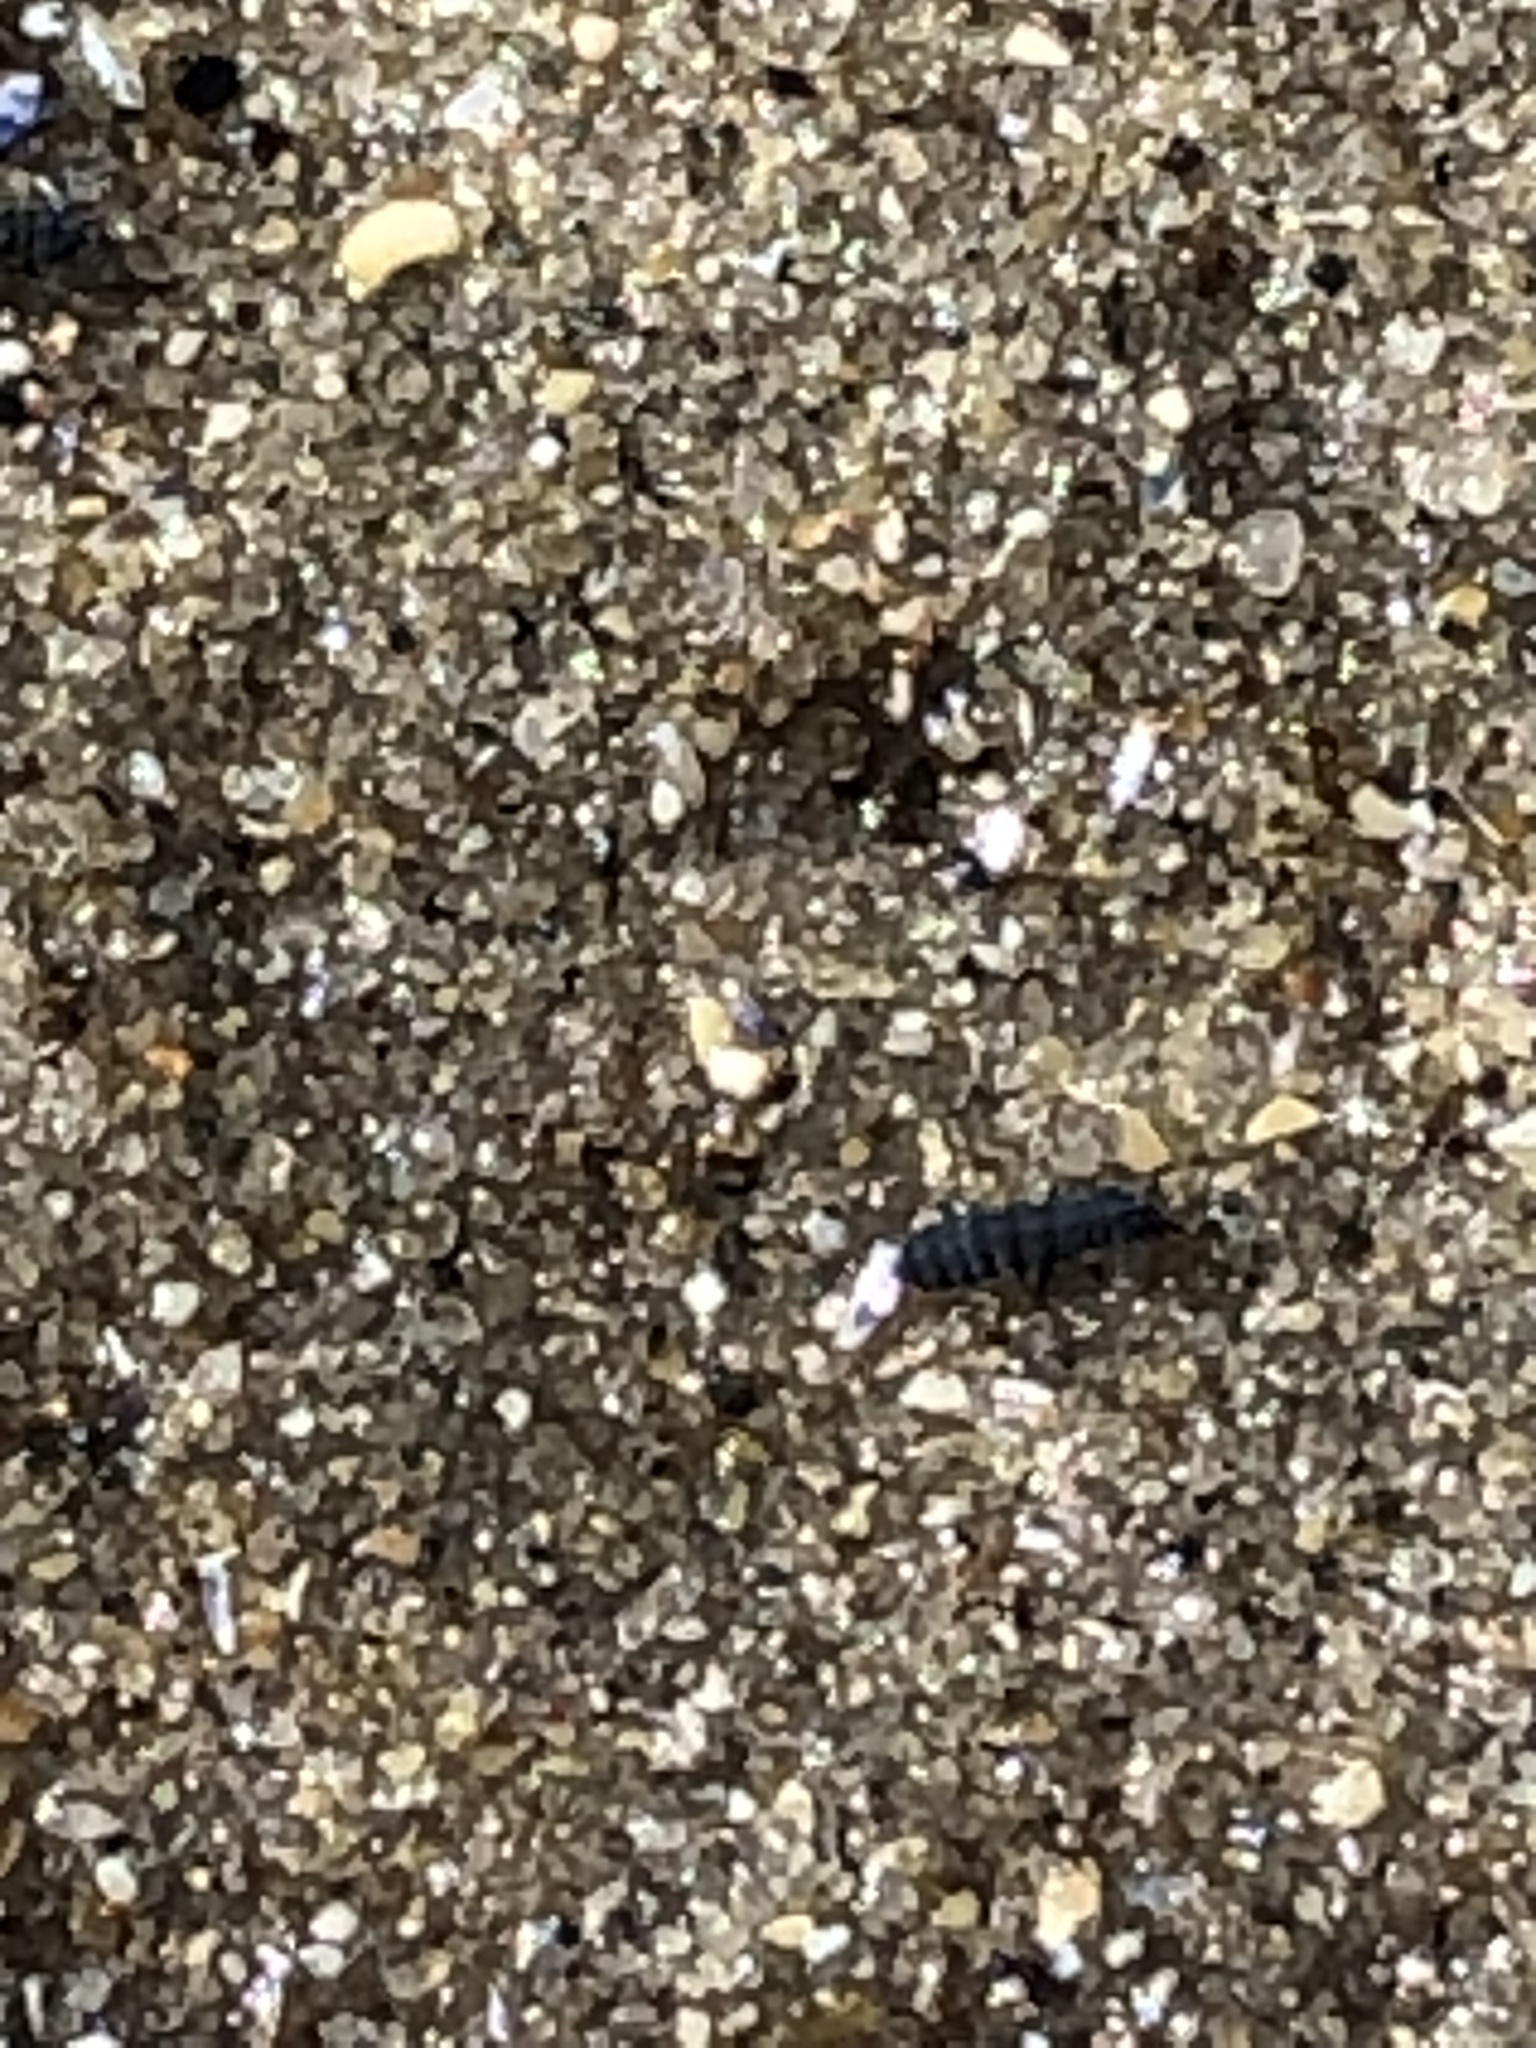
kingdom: Animalia
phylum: Arthropoda
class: Collembola
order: Poduromorpha
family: Neanuridae
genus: Anurida
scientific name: Anurida maritima
